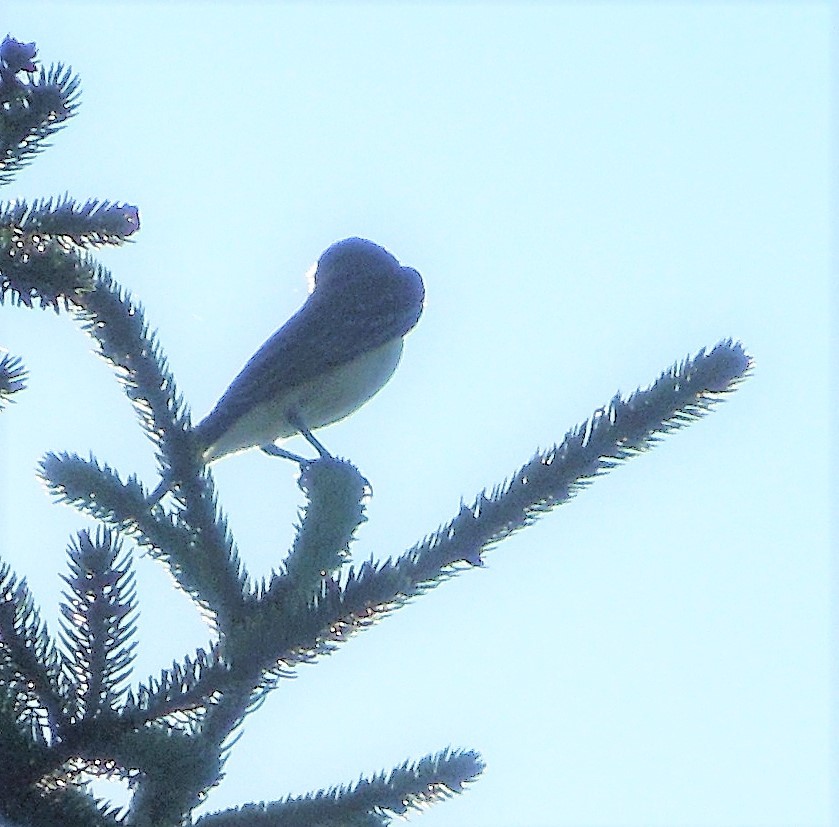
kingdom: Animalia
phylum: Chordata
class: Aves
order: Passeriformes
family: Tyrannidae
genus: Tyrannus
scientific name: Tyrannus tyrannus
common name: Eastern kingbird
